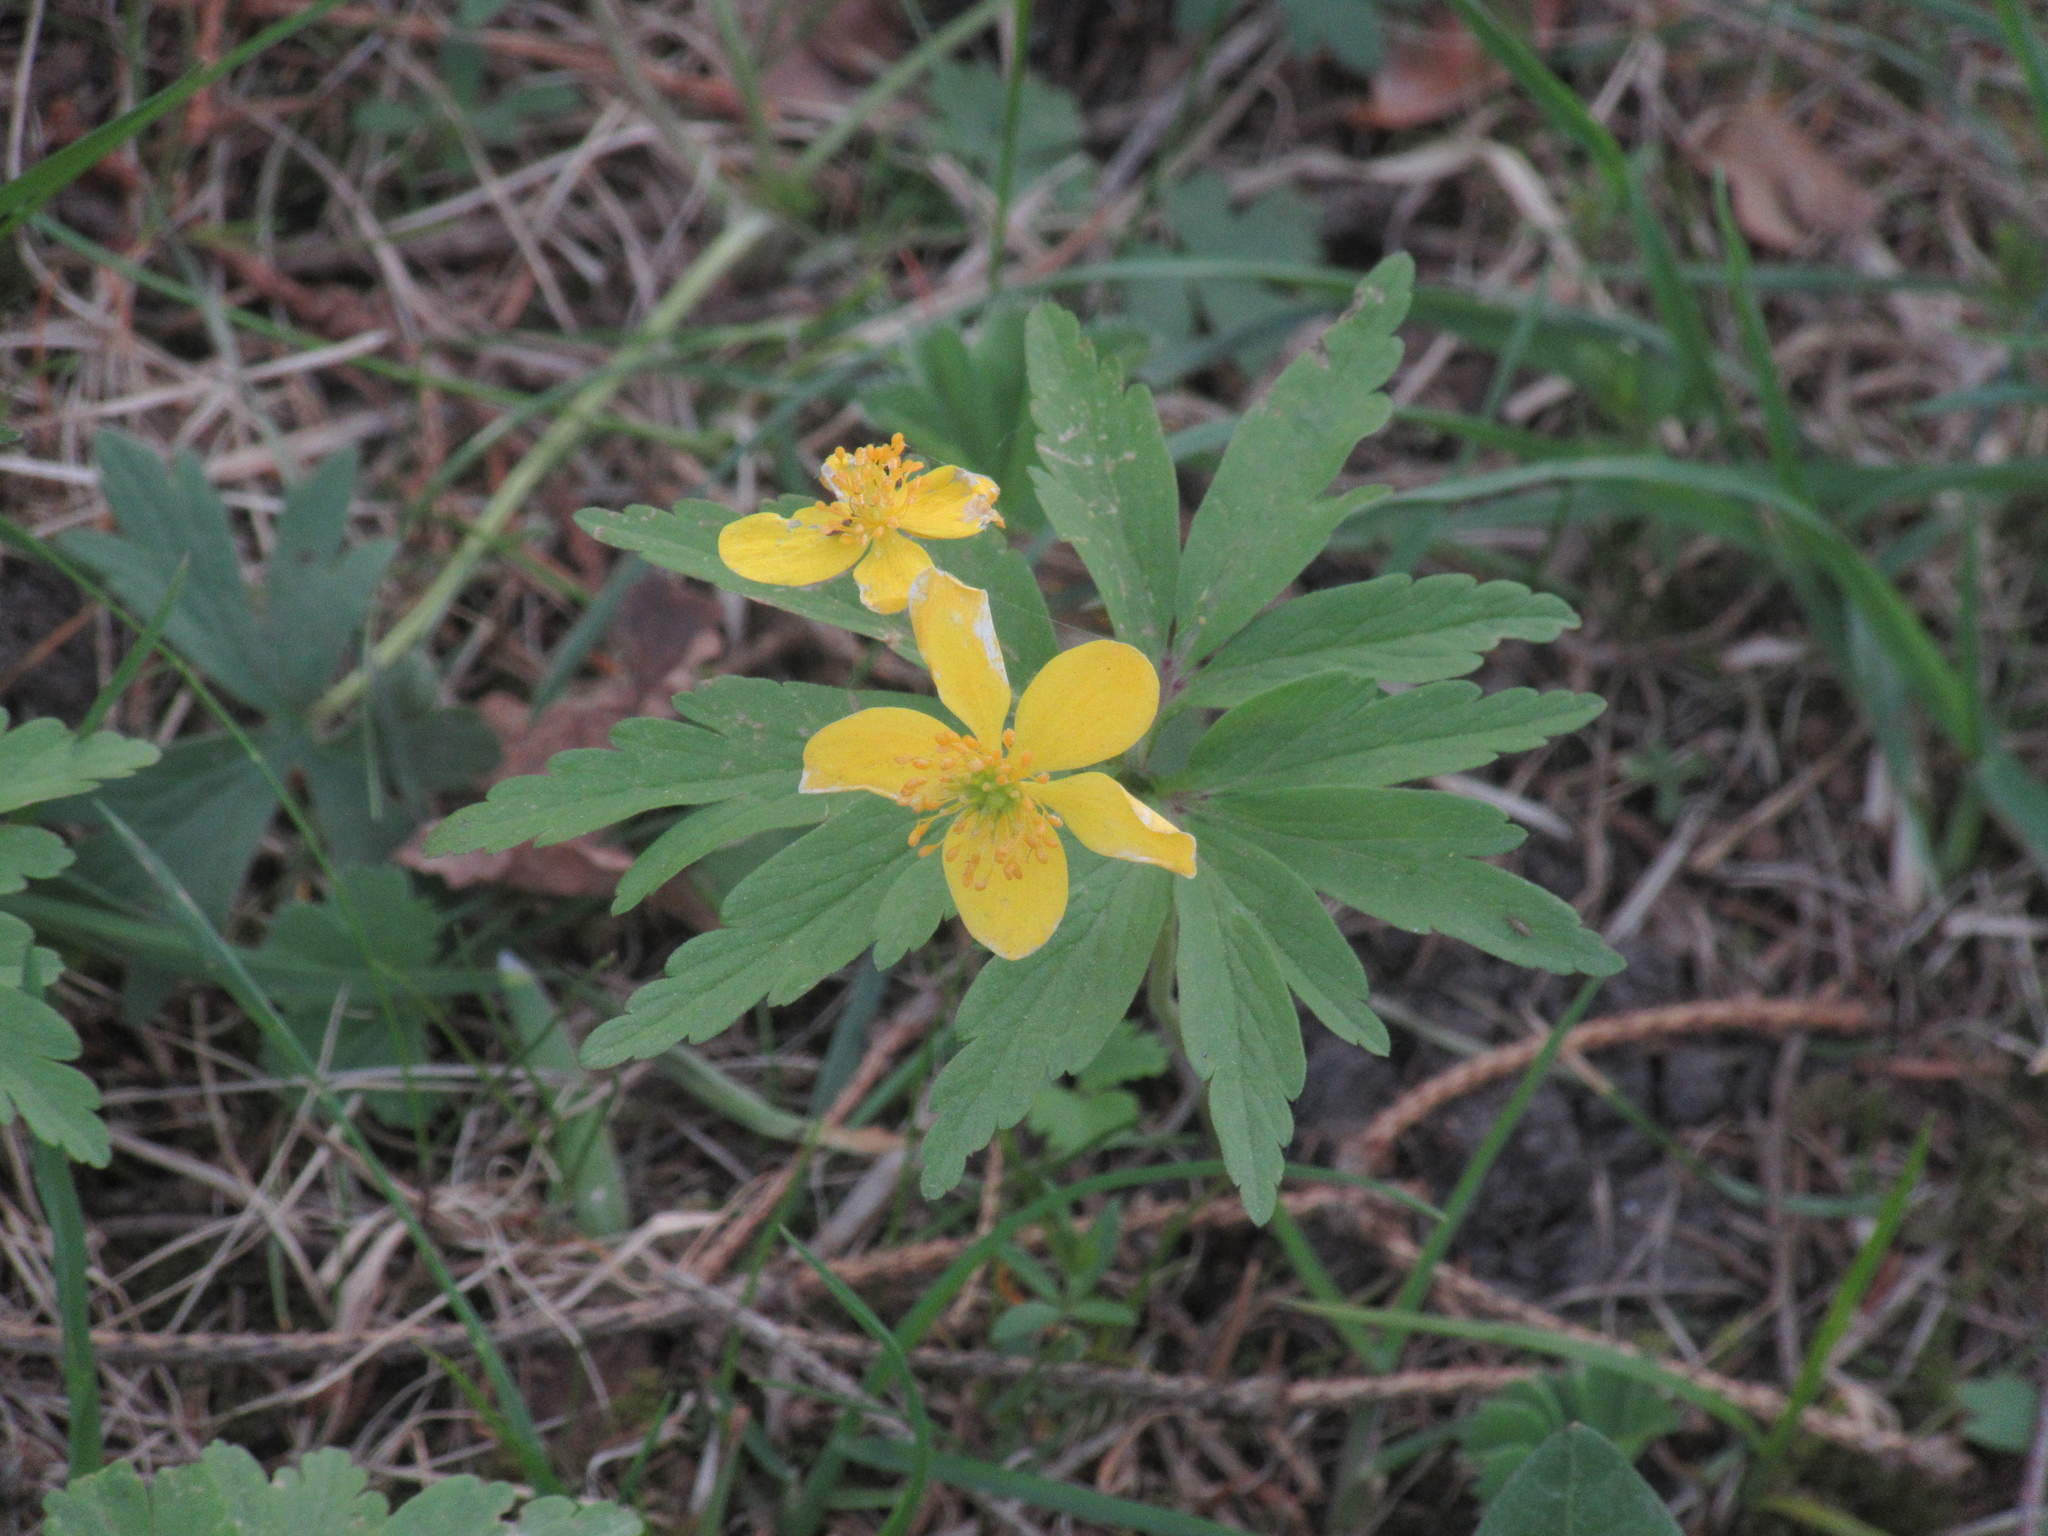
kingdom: Plantae
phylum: Tracheophyta
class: Magnoliopsida
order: Ranunculales
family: Ranunculaceae
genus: Anemone
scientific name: Anemone ranunculoides
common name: Yellow anemone
